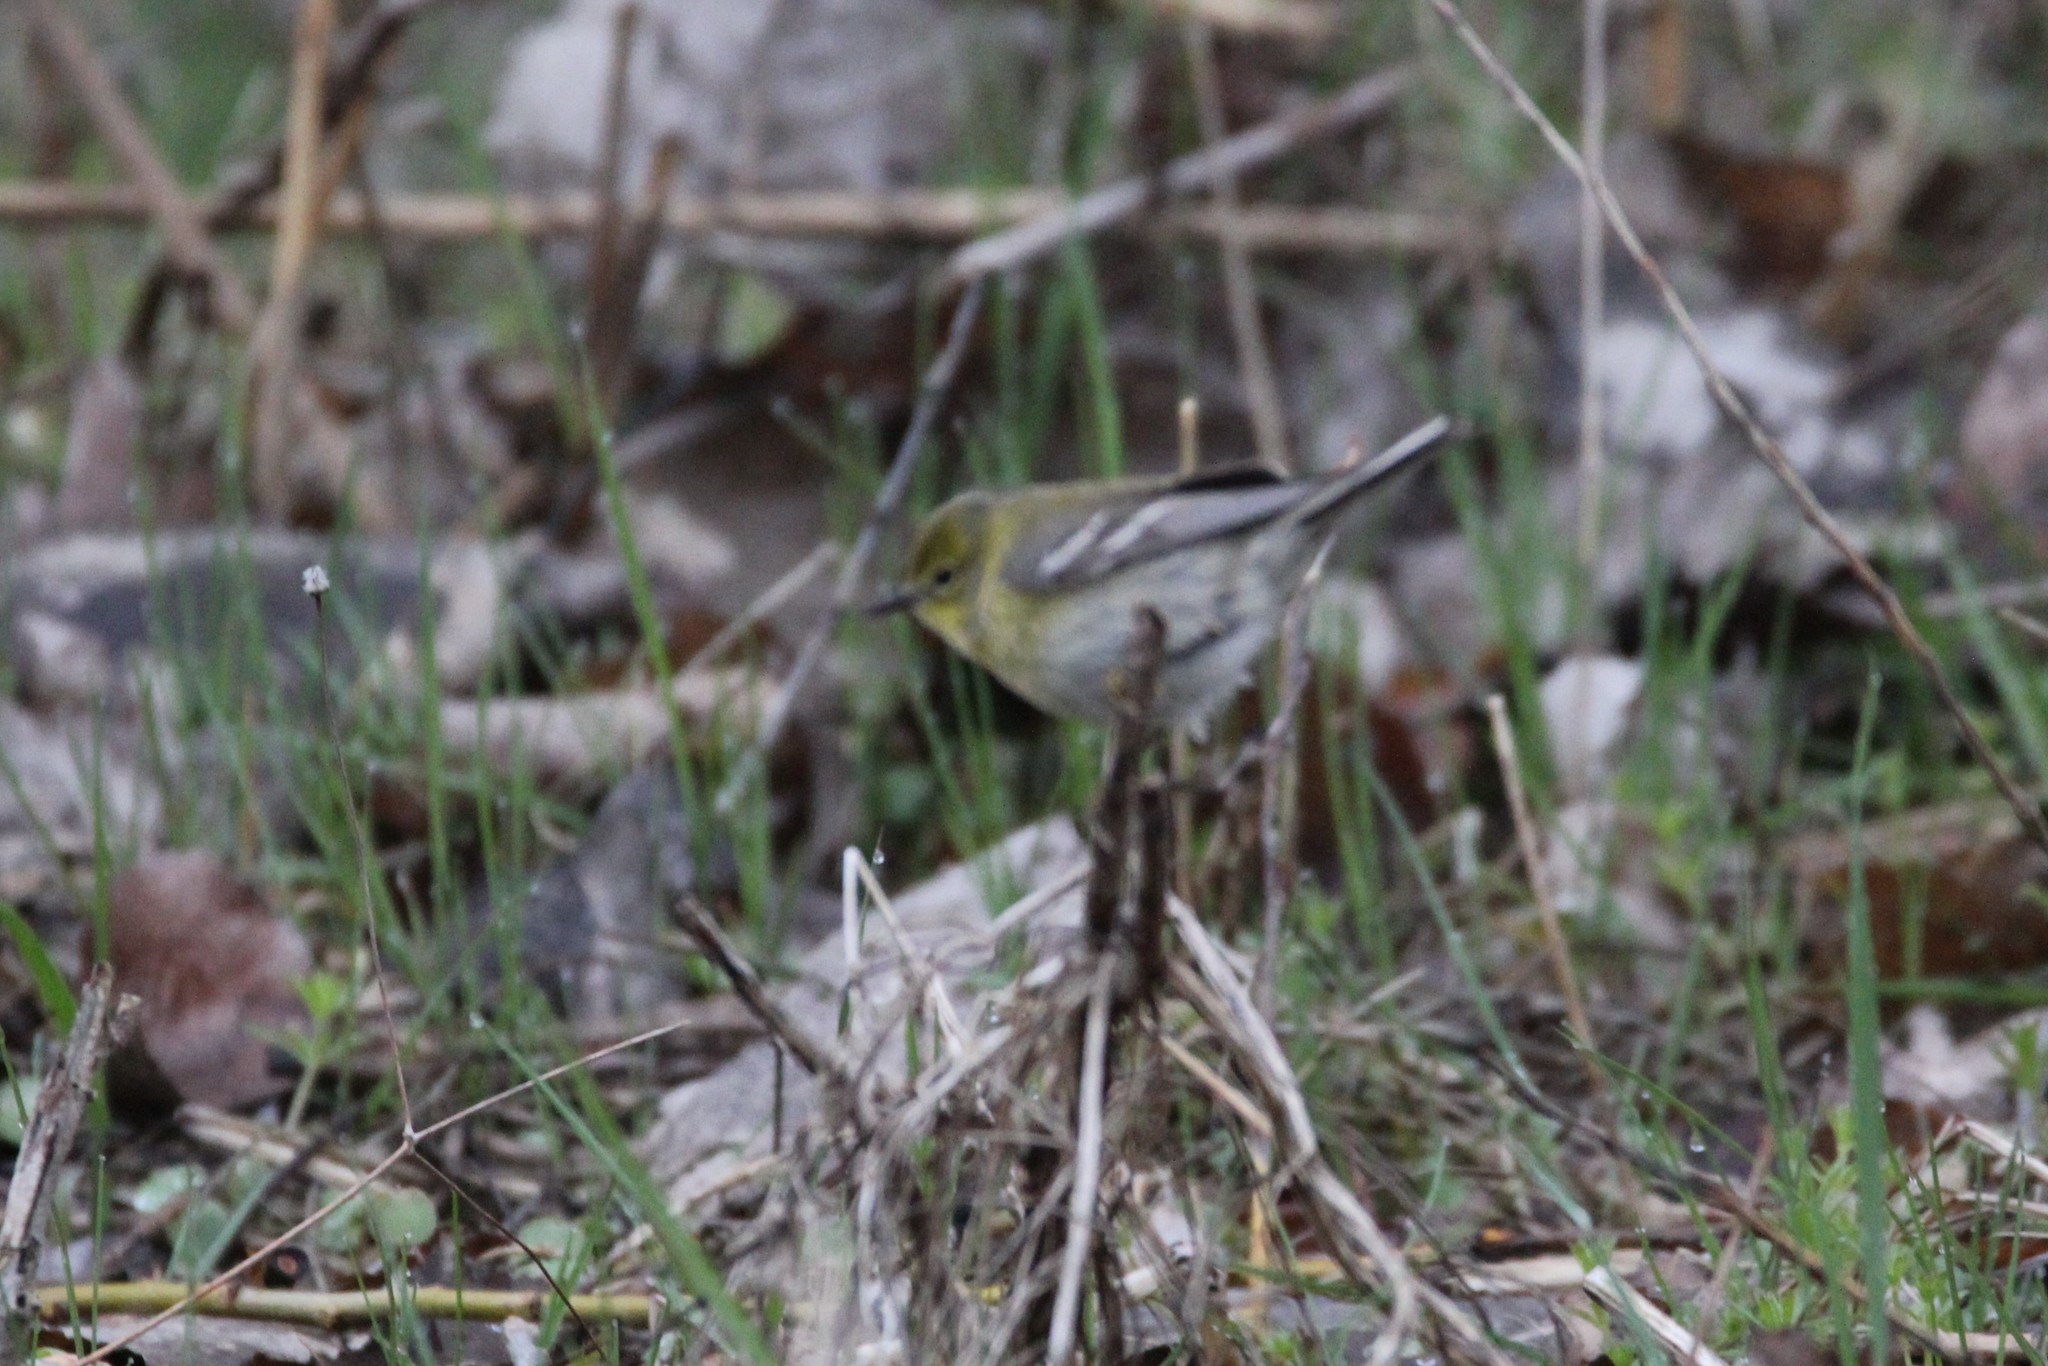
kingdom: Animalia
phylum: Chordata
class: Aves
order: Passeriformes
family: Parulidae
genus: Setophaga
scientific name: Setophaga pinus
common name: Pine warbler
